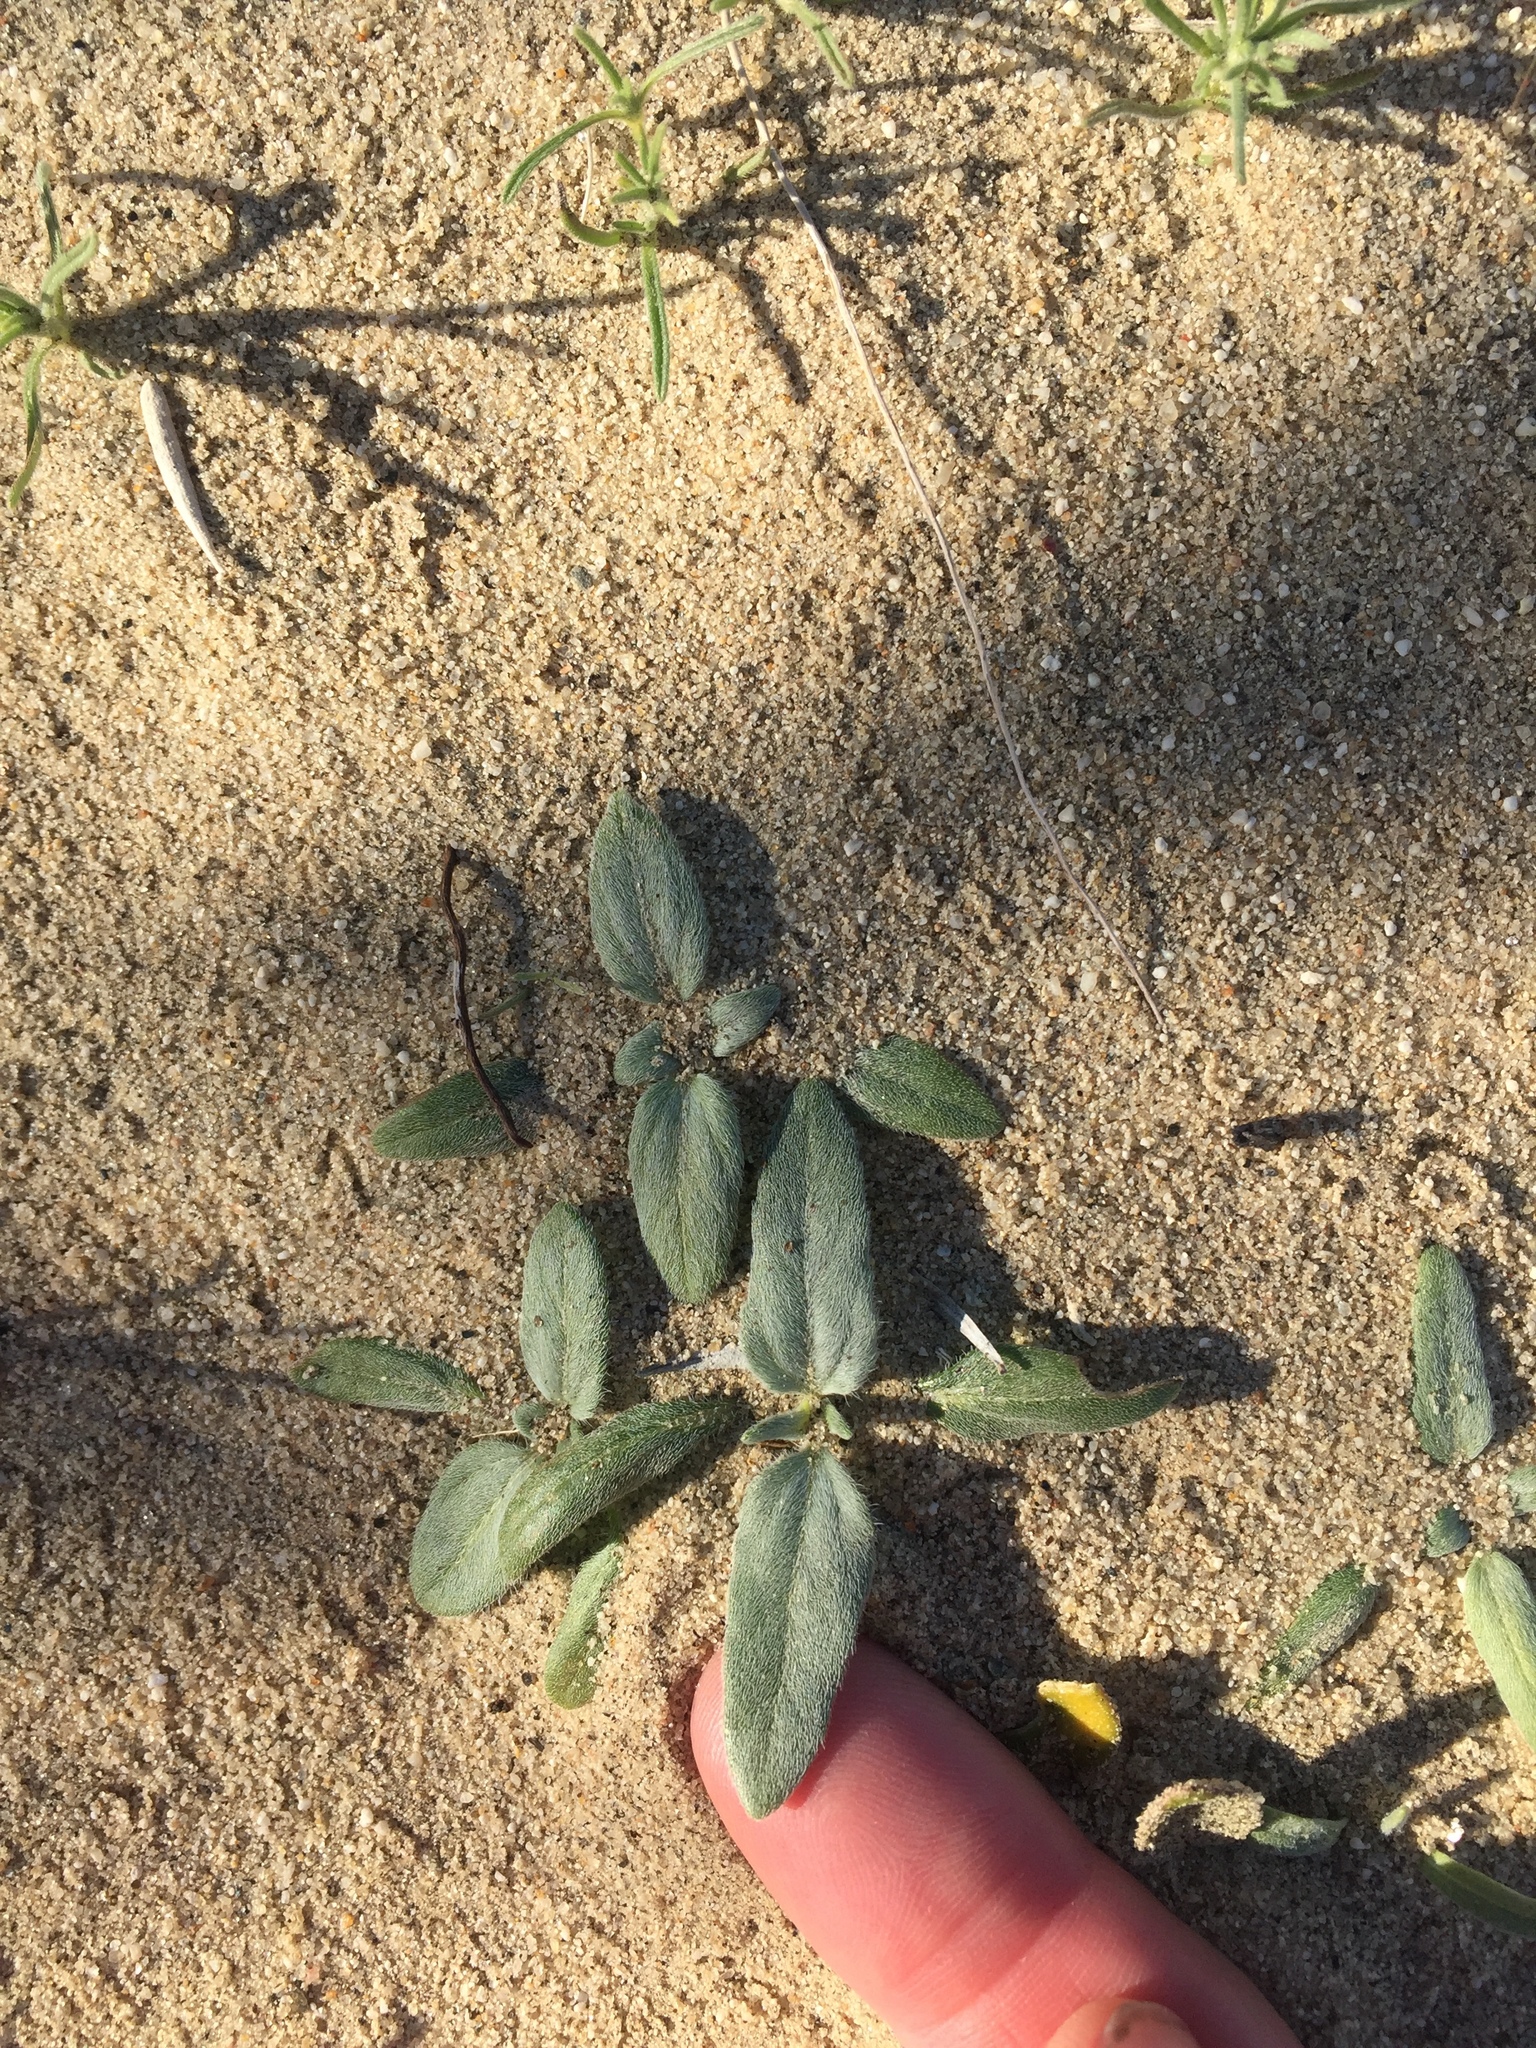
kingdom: Plantae
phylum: Tracheophyta
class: Magnoliopsida
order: Asterales
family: Asteraceae
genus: Helianthus
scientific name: Helianthus petiolaris
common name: Lesser sunflower
